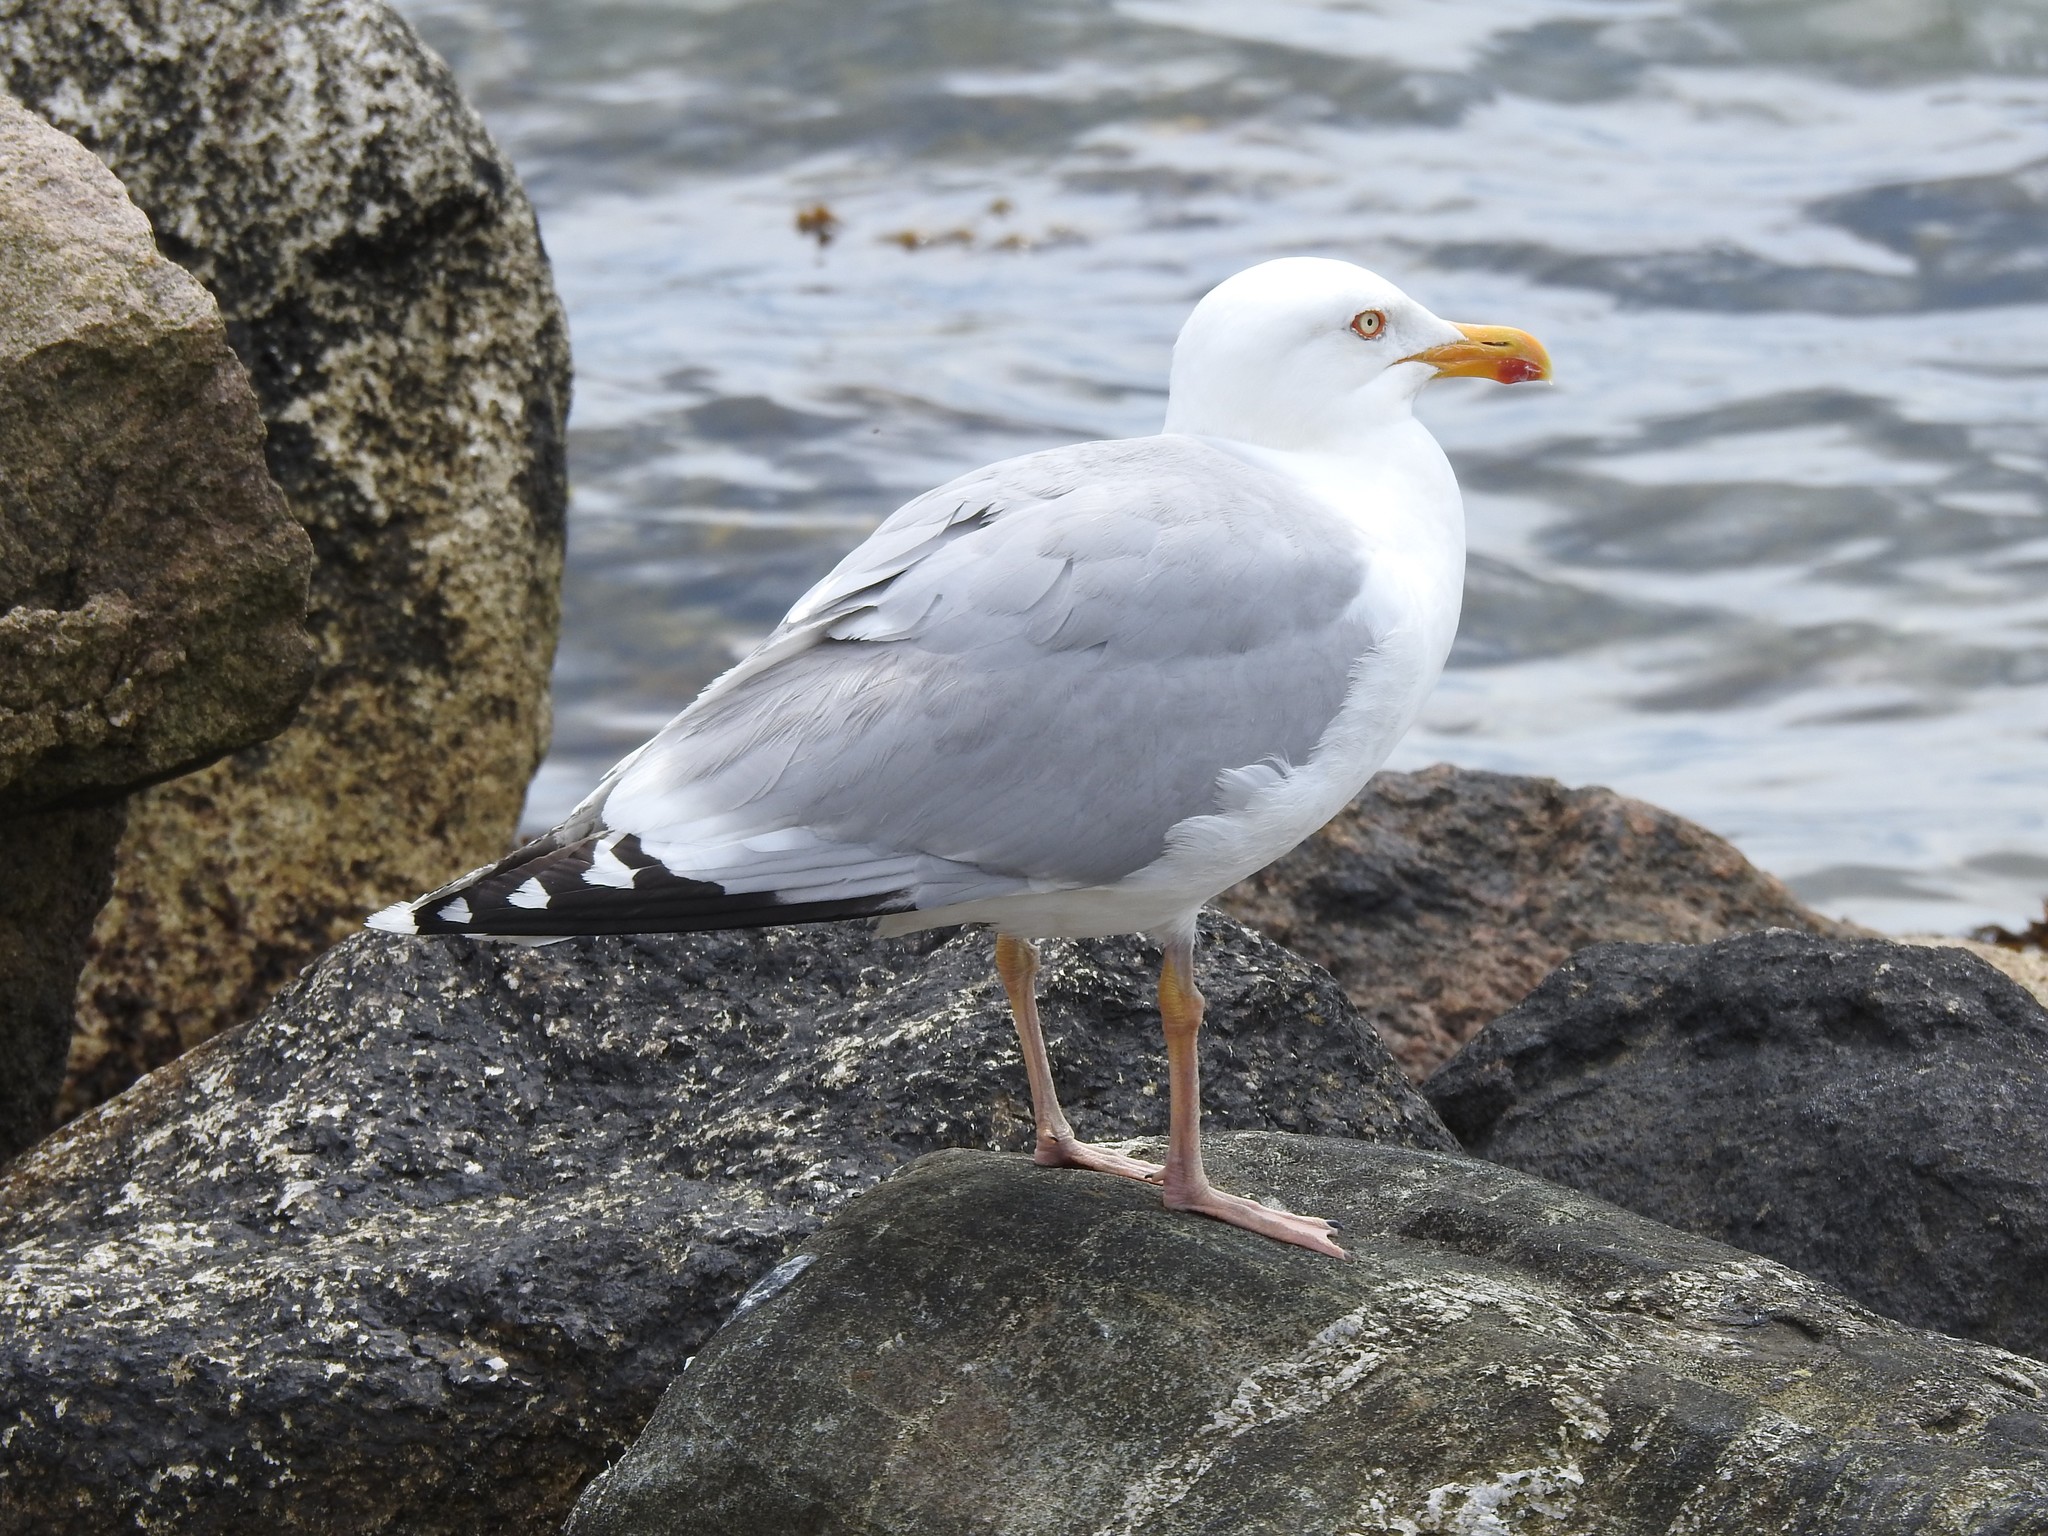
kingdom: Animalia
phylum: Chordata
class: Aves
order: Charadriiformes
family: Laridae
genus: Larus
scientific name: Larus argentatus
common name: Herring gull
